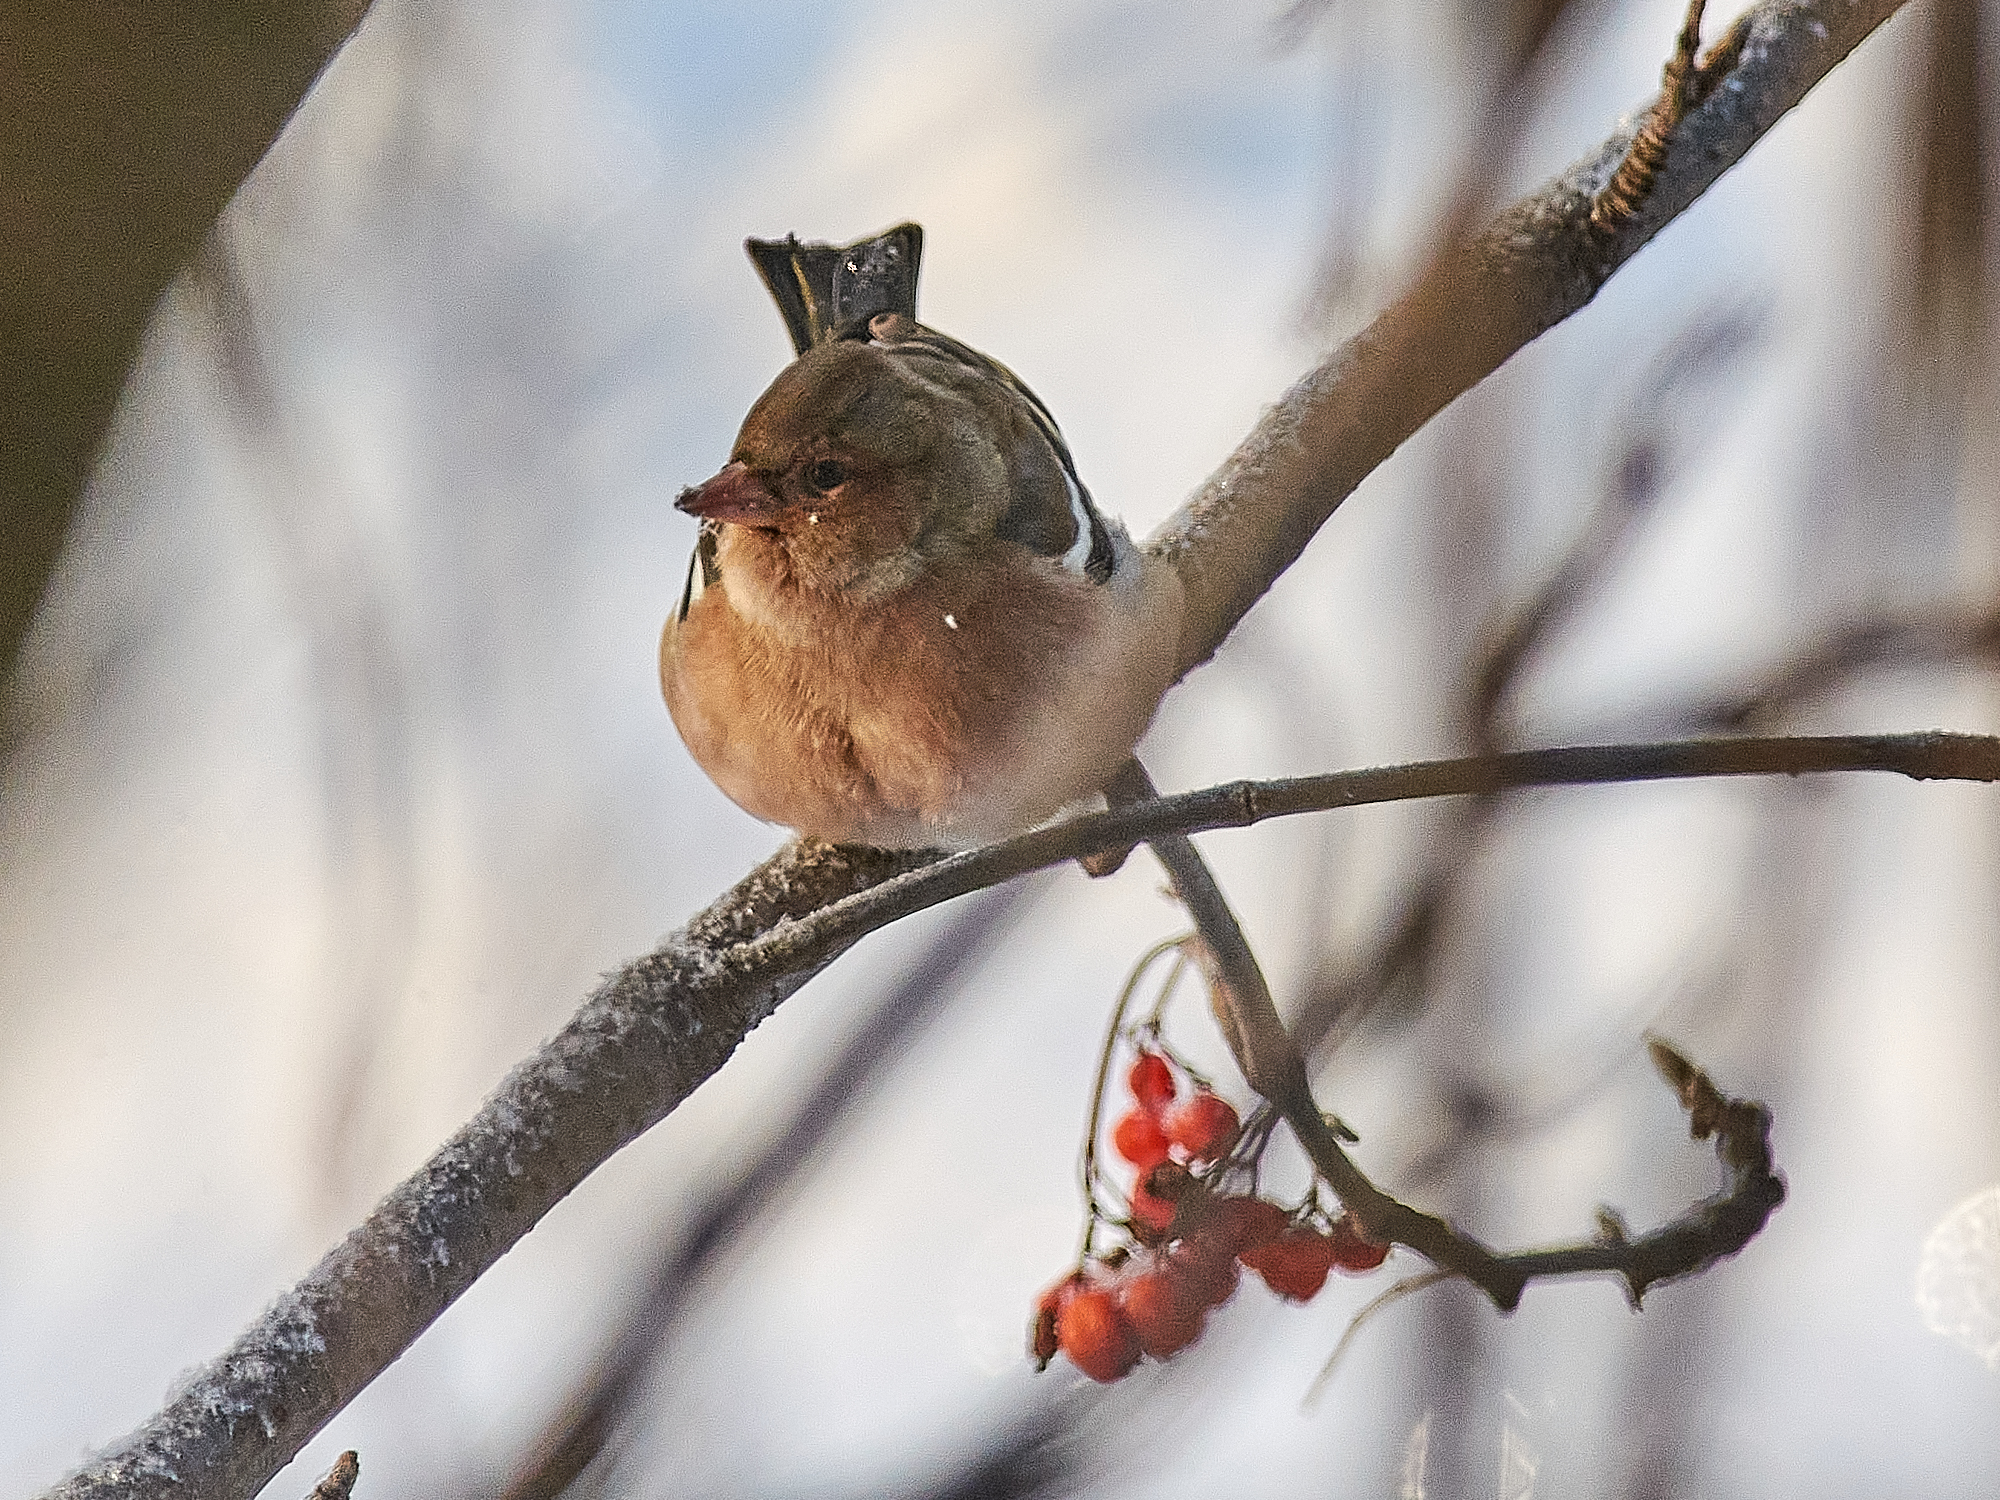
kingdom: Animalia
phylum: Chordata
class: Aves
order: Passeriformes
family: Fringillidae
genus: Fringilla
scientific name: Fringilla coelebs
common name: Common chaffinch
